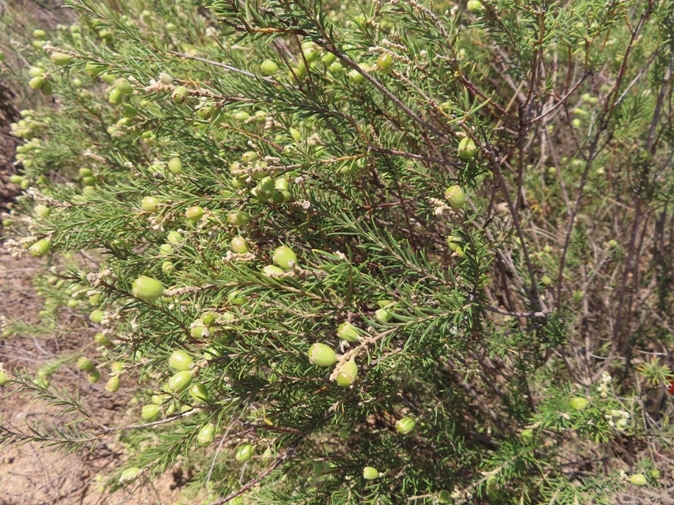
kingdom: Plantae
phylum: Tracheophyta
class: Magnoliopsida
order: Rosales
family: Rhamnaceae
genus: Phylica
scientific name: Phylica maximiliani
